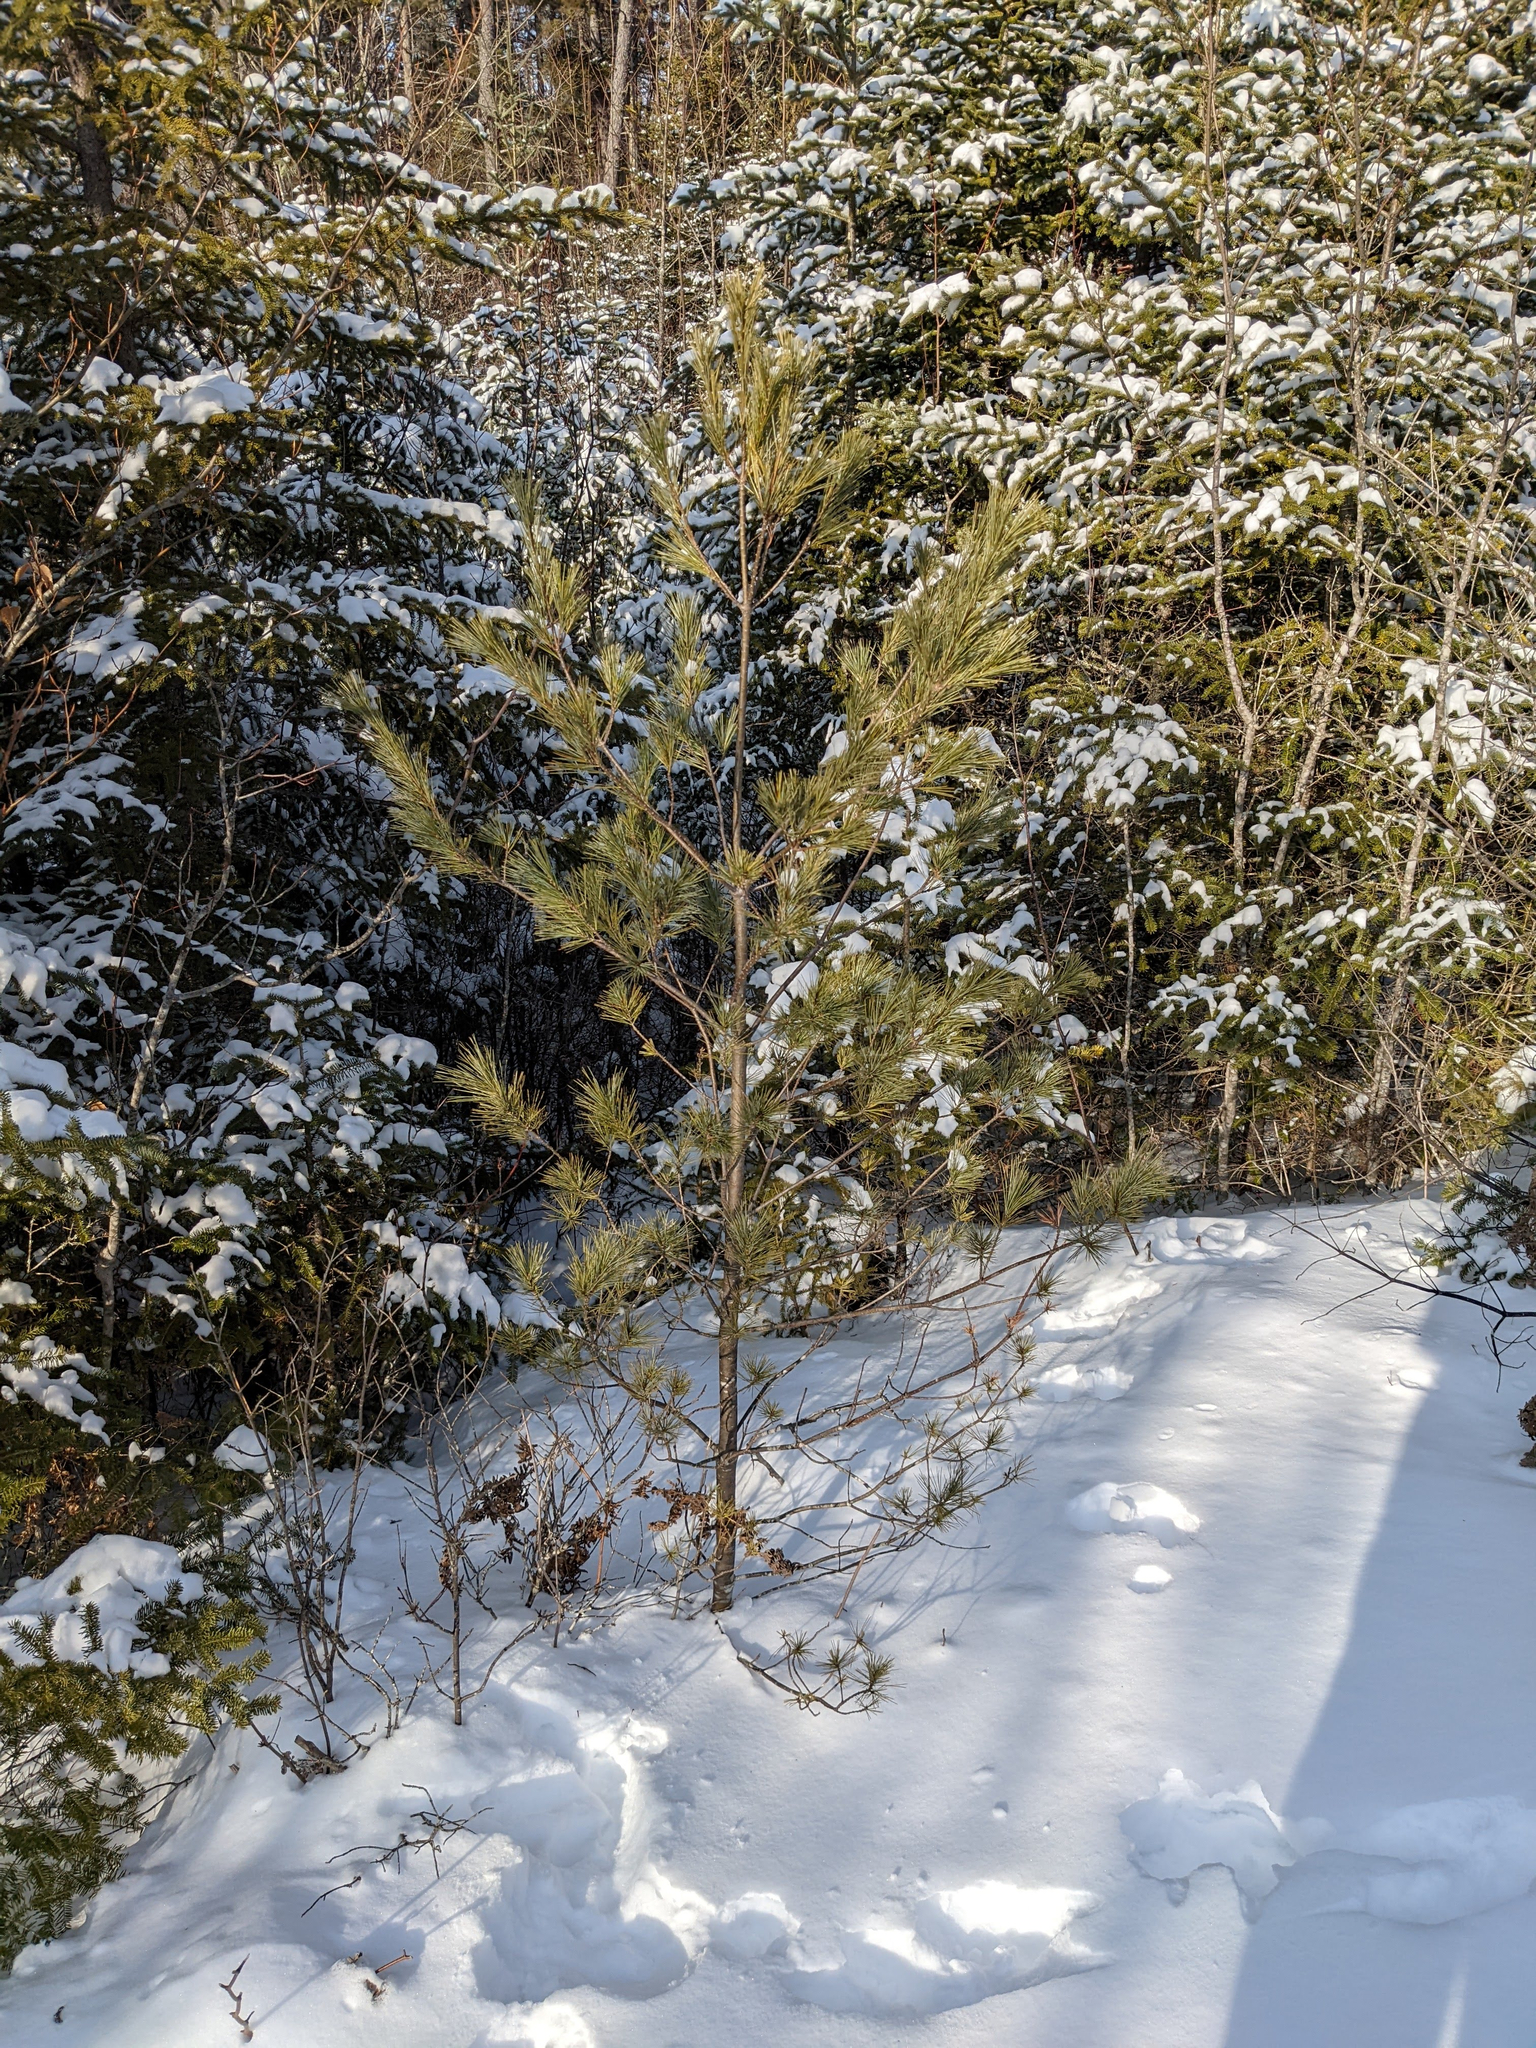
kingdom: Plantae
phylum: Tracheophyta
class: Pinopsida
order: Pinales
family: Pinaceae
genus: Pinus
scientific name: Pinus strobus
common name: Weymouth pine
